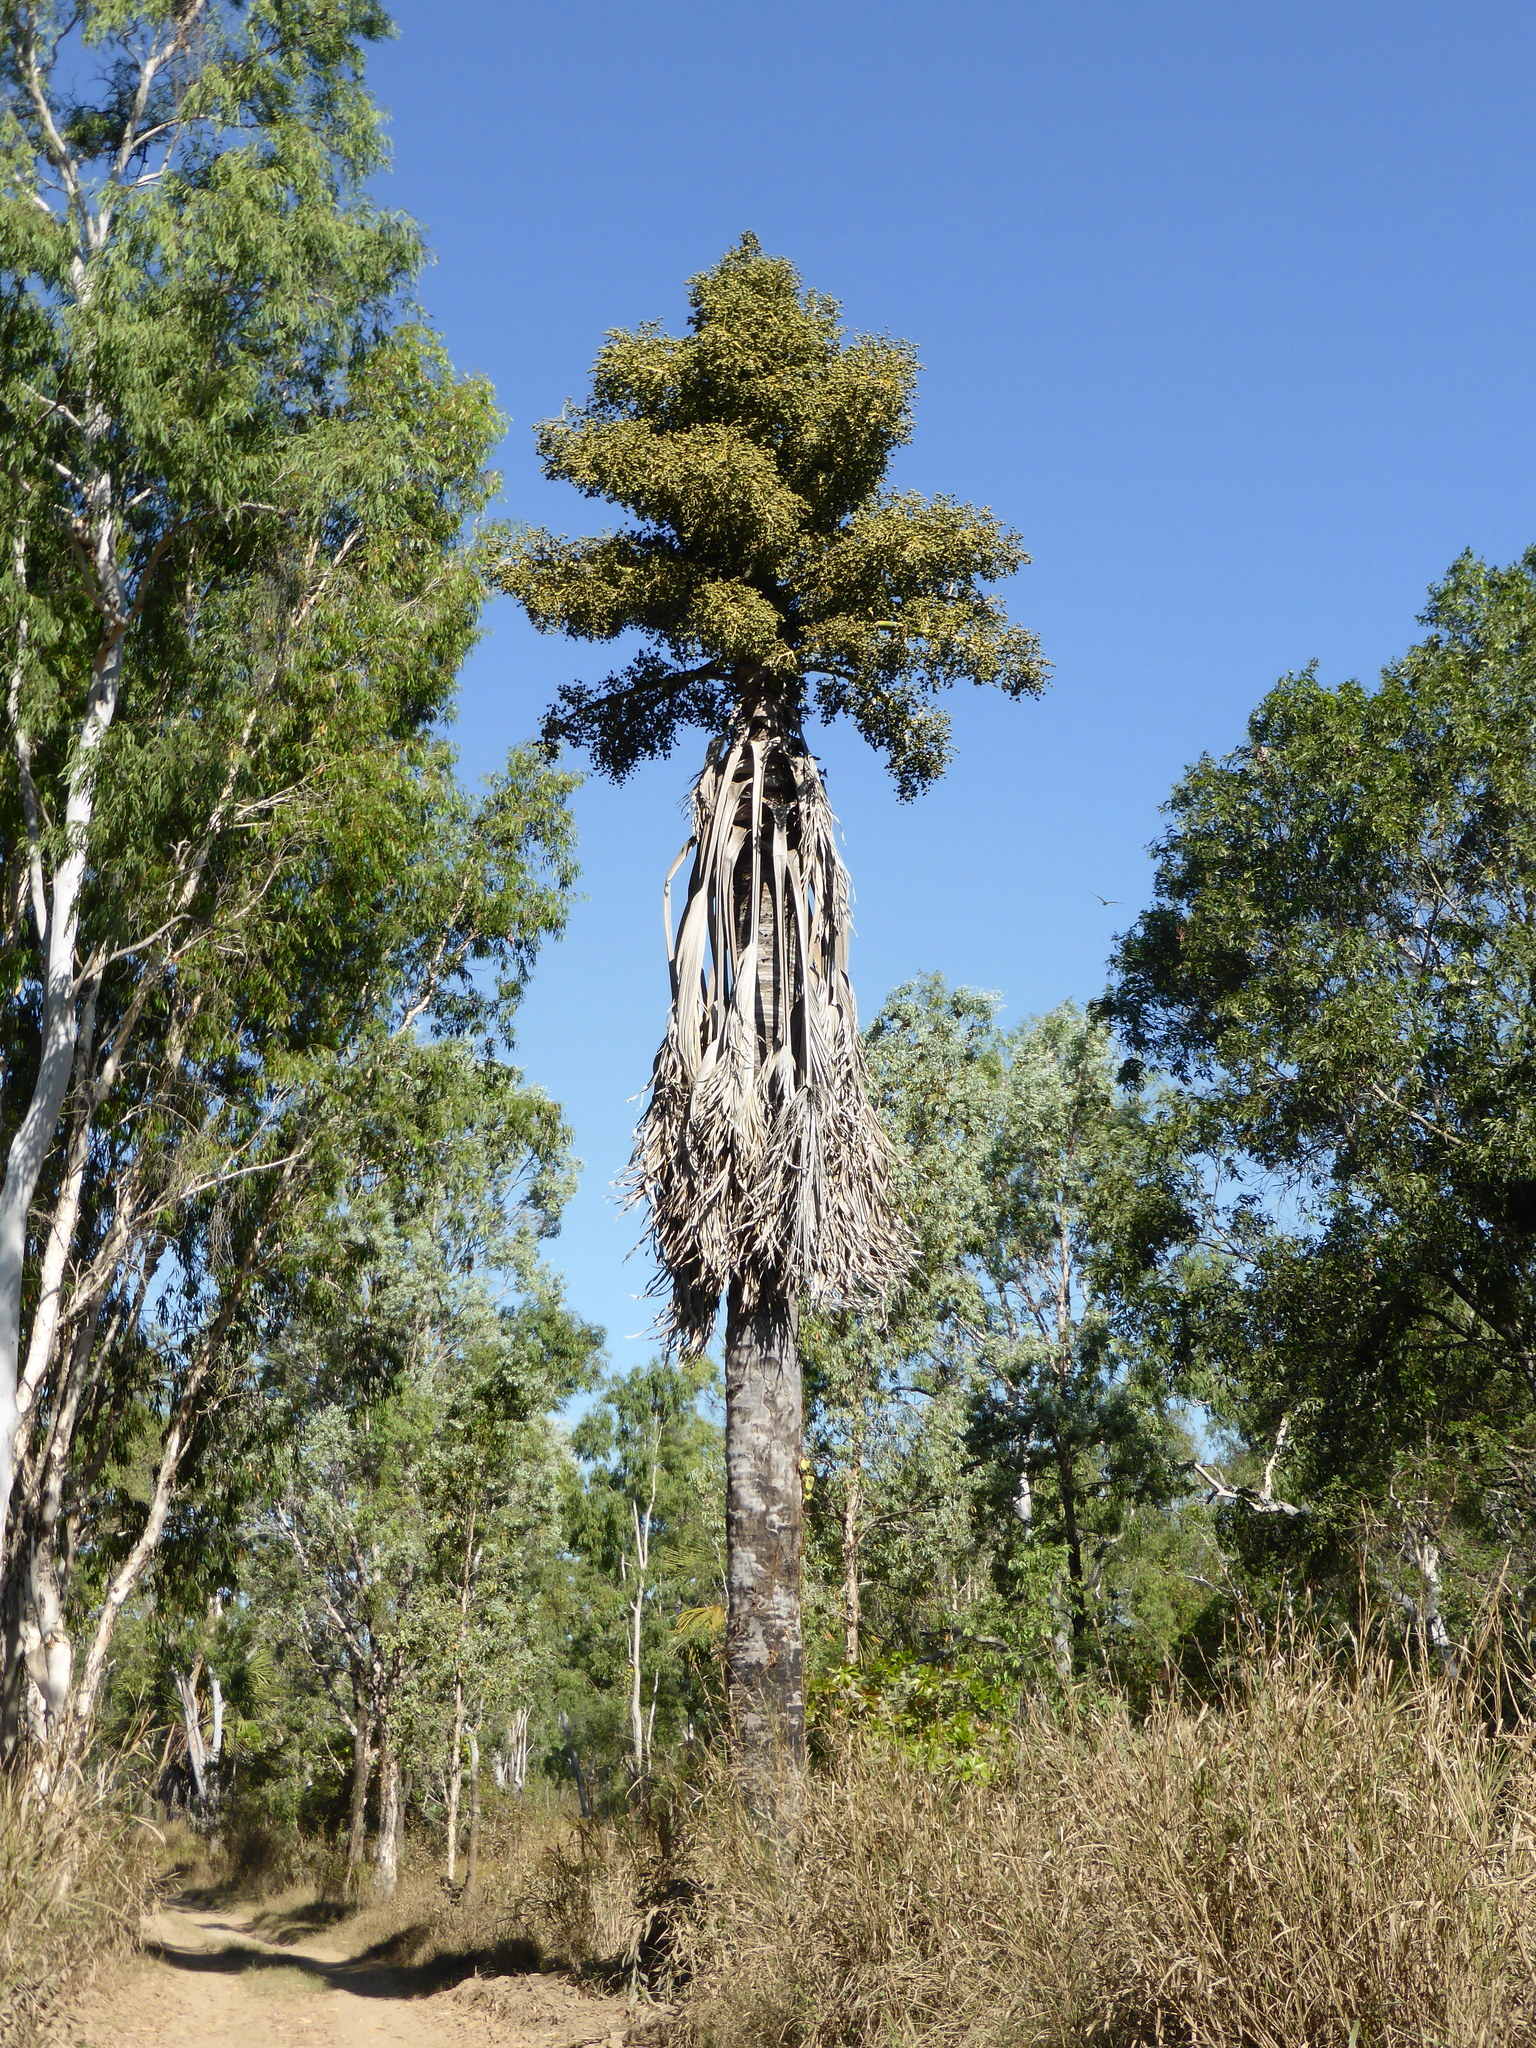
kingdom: Plantae
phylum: Tracheophyta
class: Liliopsida
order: Arecales
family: Arecaceae
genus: Corypha
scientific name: Corypha utan
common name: Buri palm
